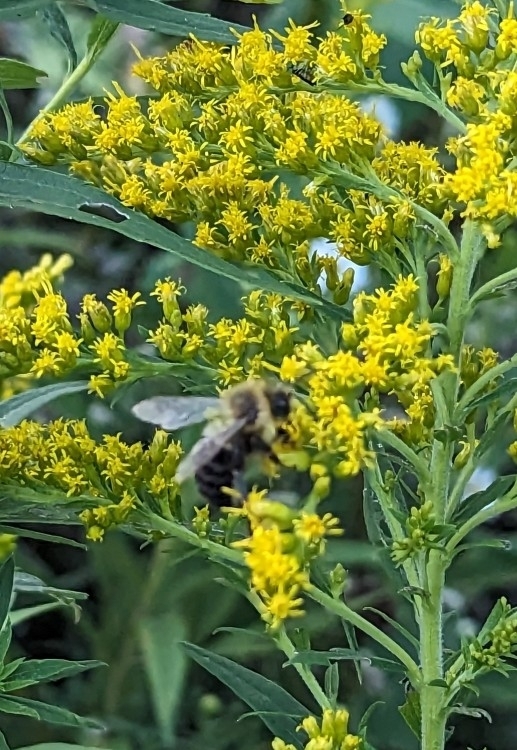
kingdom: Animalia
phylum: Arthropoda
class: Insecta
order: Hymenoptera
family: Apidae
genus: Bombus
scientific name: Bombus impatiens
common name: Common eastern bumble bee
